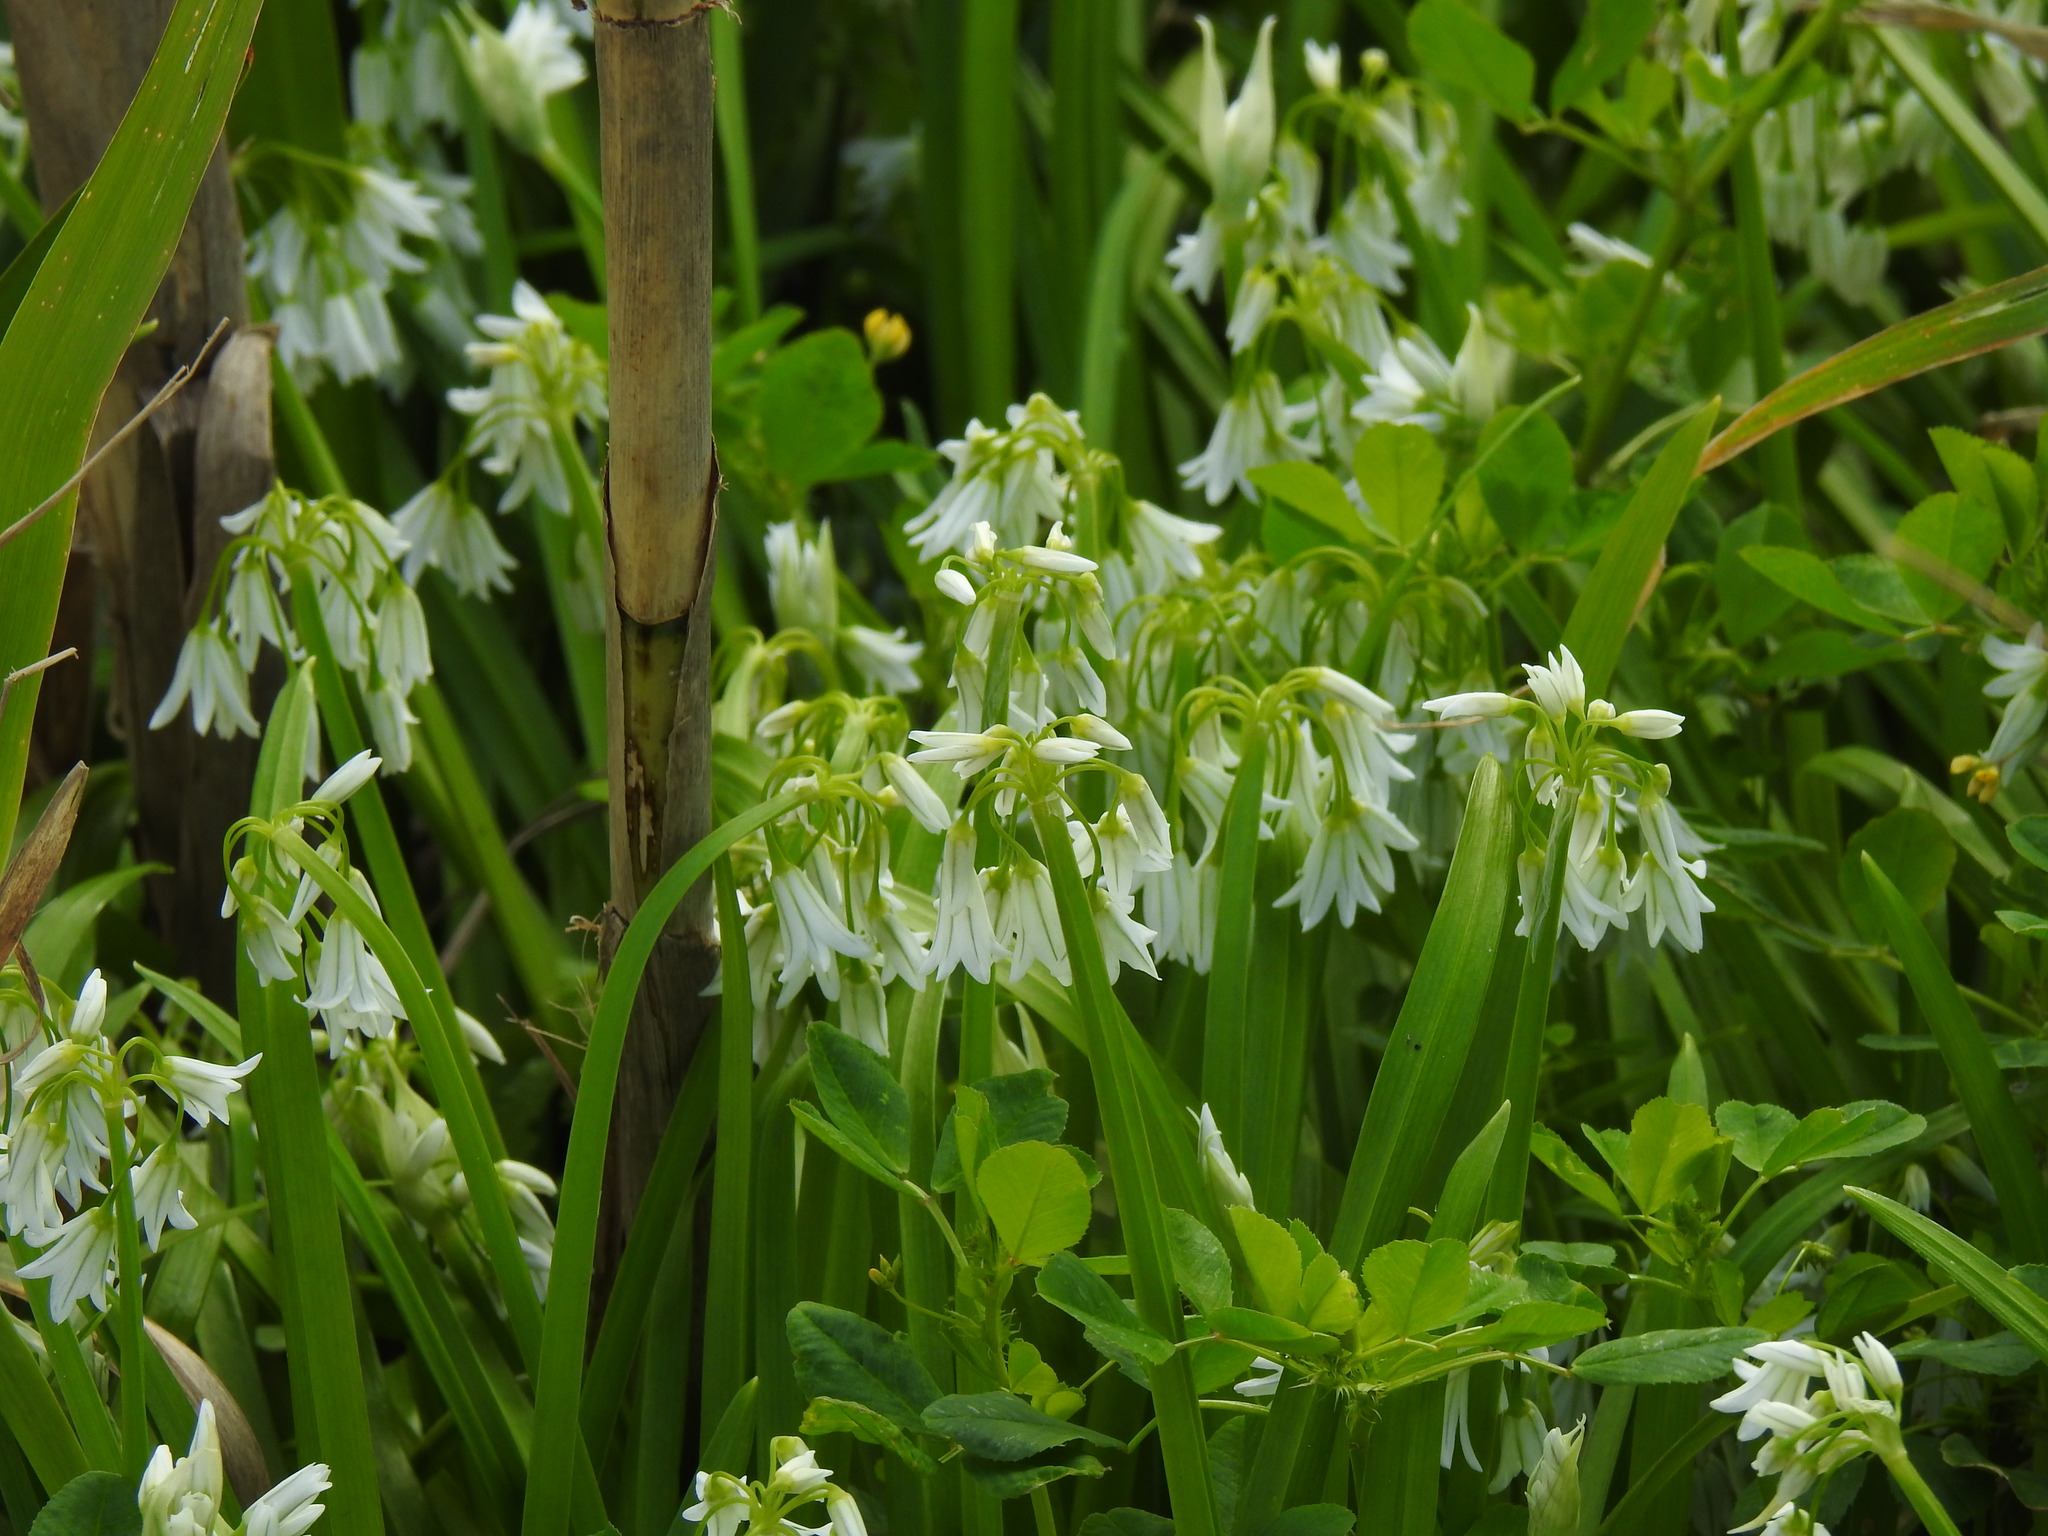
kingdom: Plantae
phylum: Tracheophyta
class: Liliopsida
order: Asparagales
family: Amaryllidaceae
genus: Allium
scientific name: Allium triquetrum
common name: Three-cornered garlic
